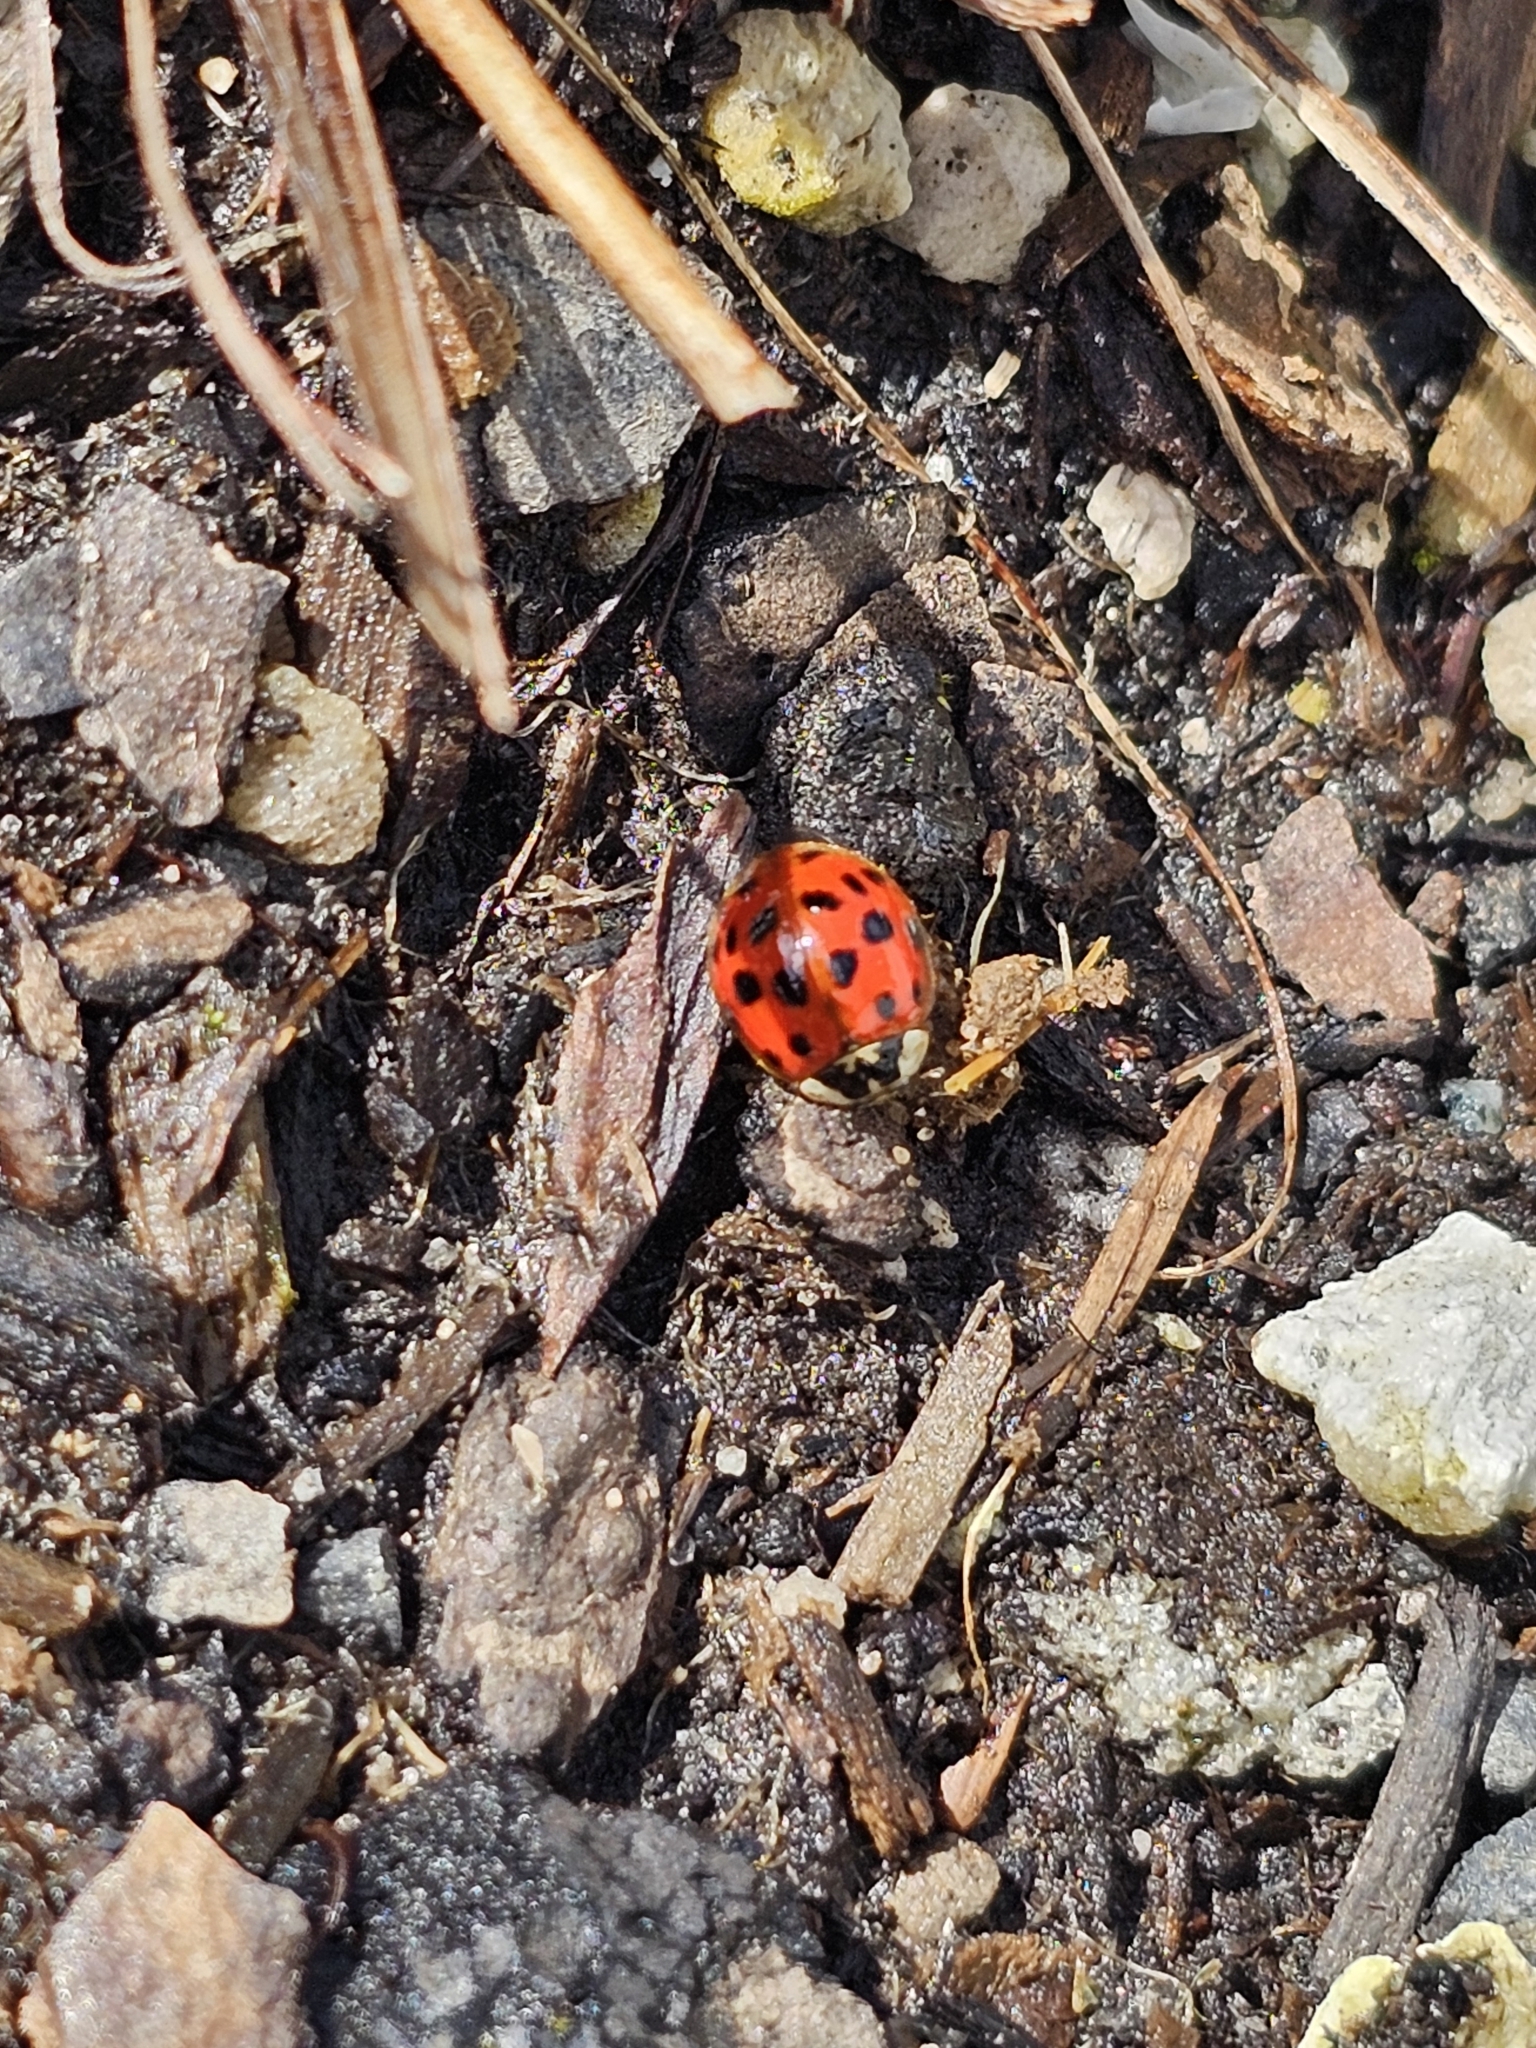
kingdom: Animalia
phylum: Arthropoda
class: Insecta
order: Coleoptera
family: Coccinellidae
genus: Harmonia
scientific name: Harmonia axyridis
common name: Harlequin ladybird
